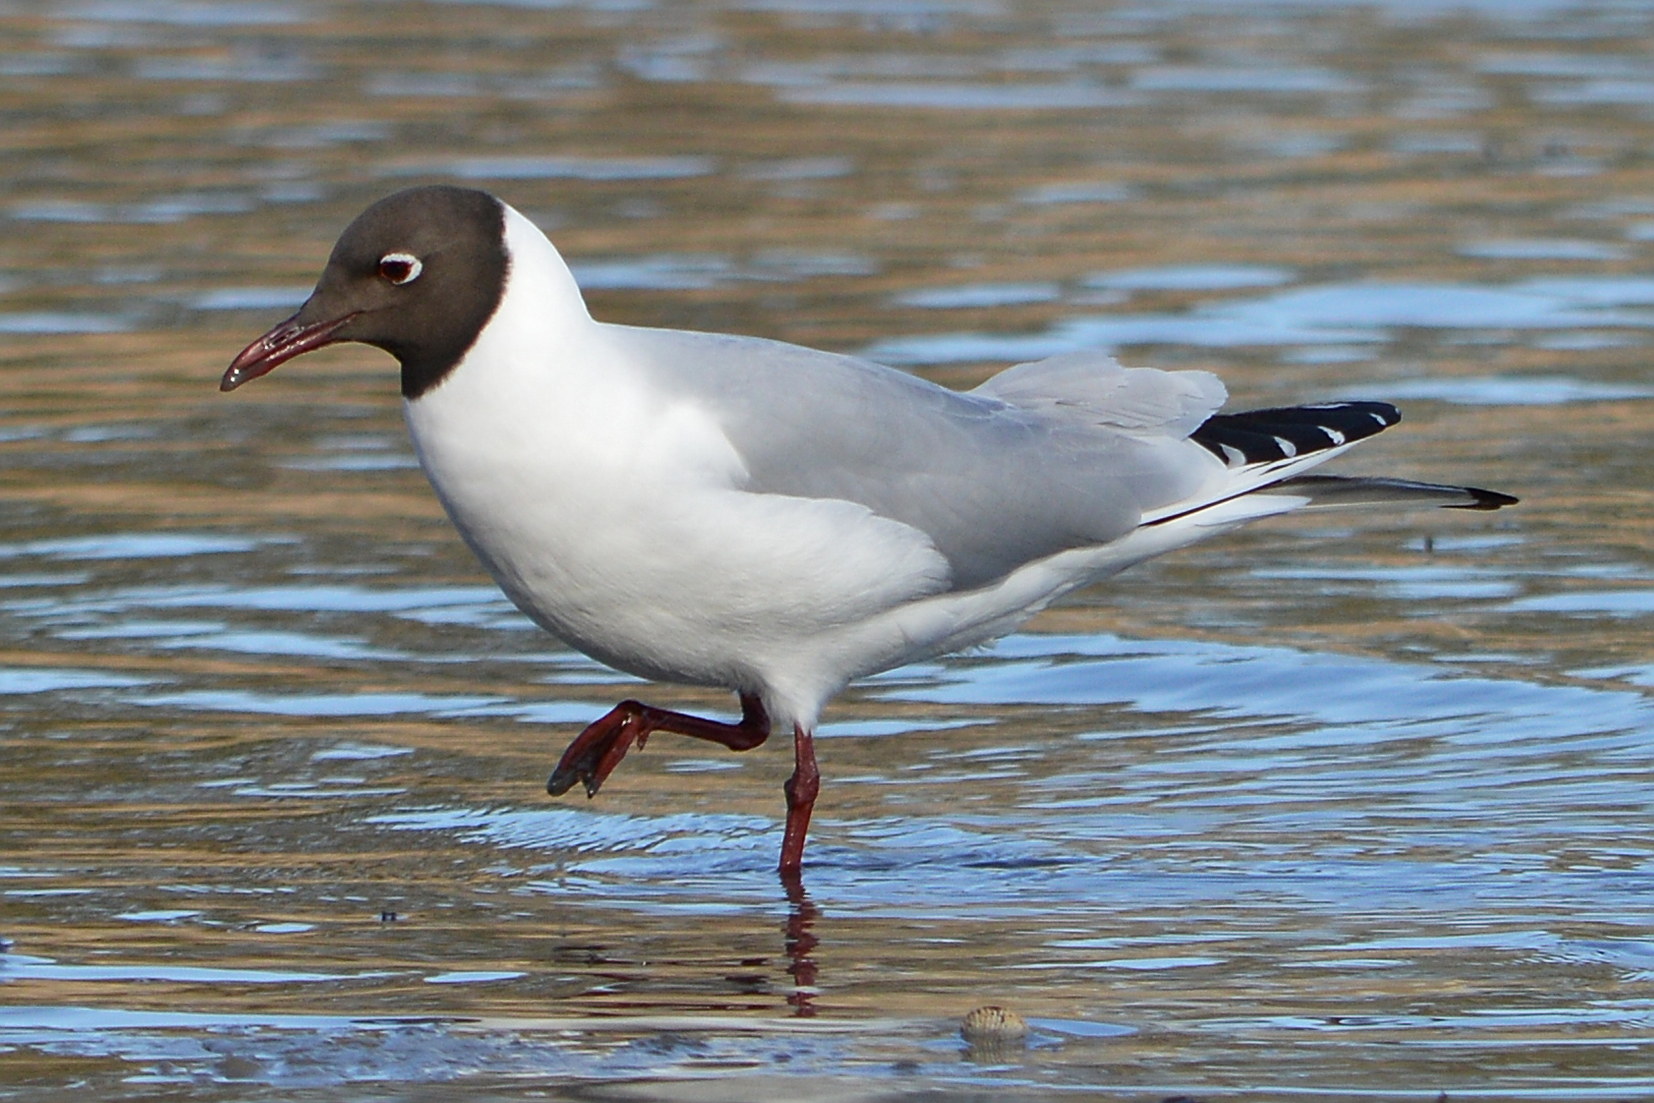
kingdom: Animalia
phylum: Chordata
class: Aves
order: Charadriiformes
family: Laridae
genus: Chroicocephalus
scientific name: Chroicocephalus ridibundus
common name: Black-headed gull
